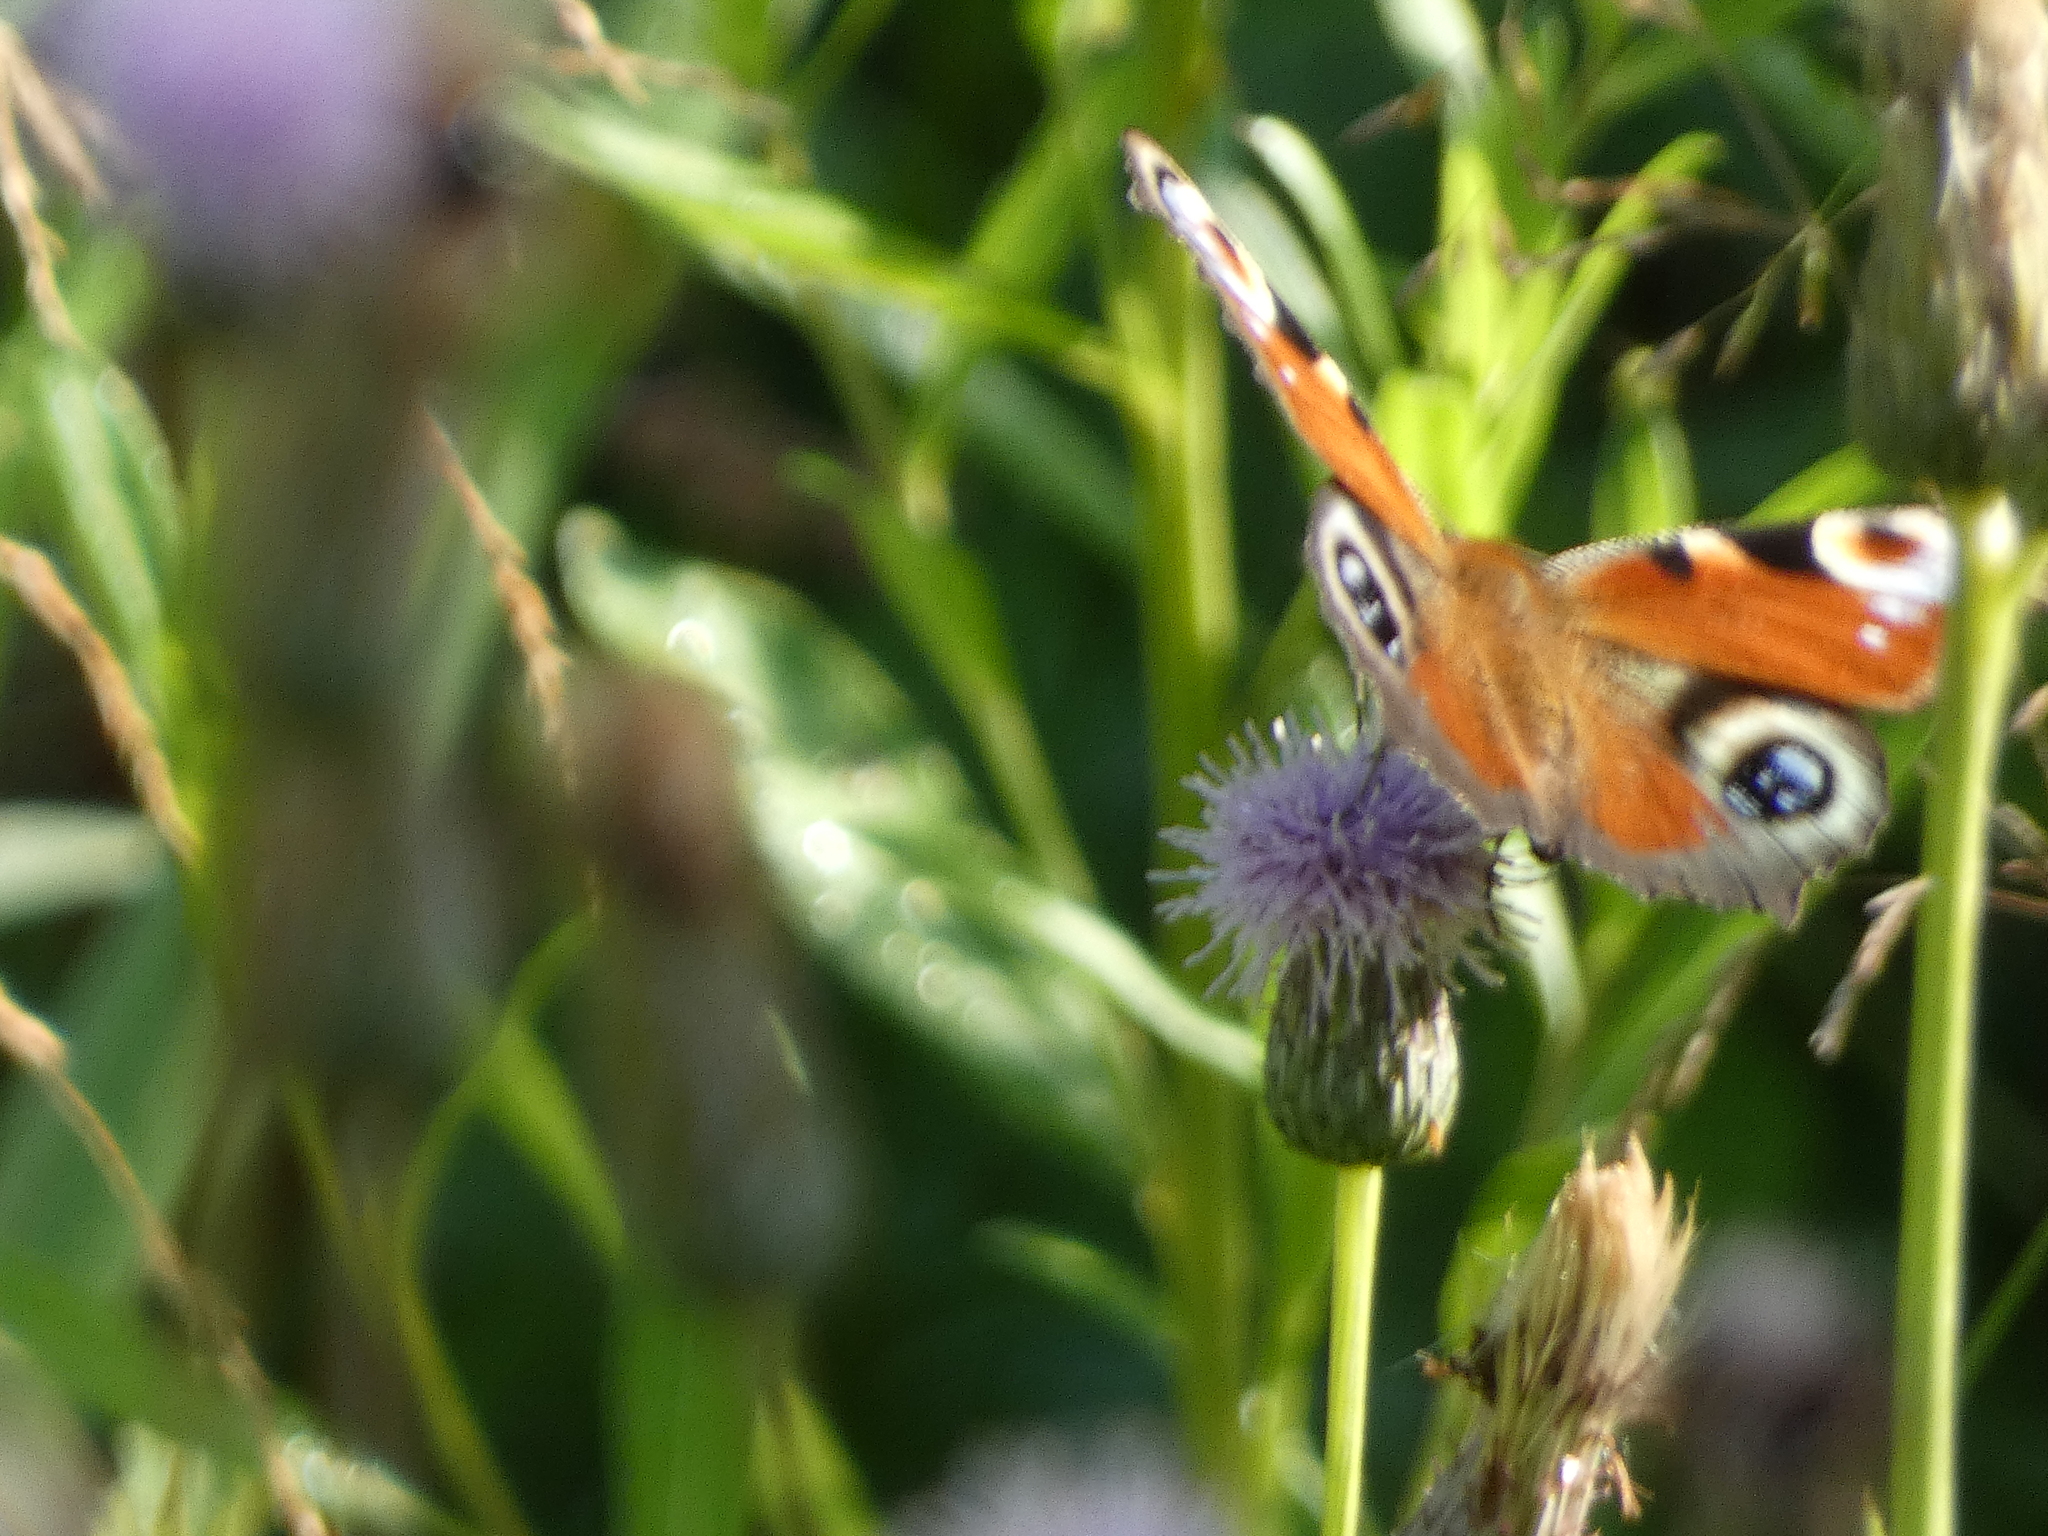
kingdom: Animalia
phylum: Arthropoda
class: Insecta
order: Lepidoptera
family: Nymphalidae
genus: Aglais
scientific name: Aglais io
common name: Peacock
